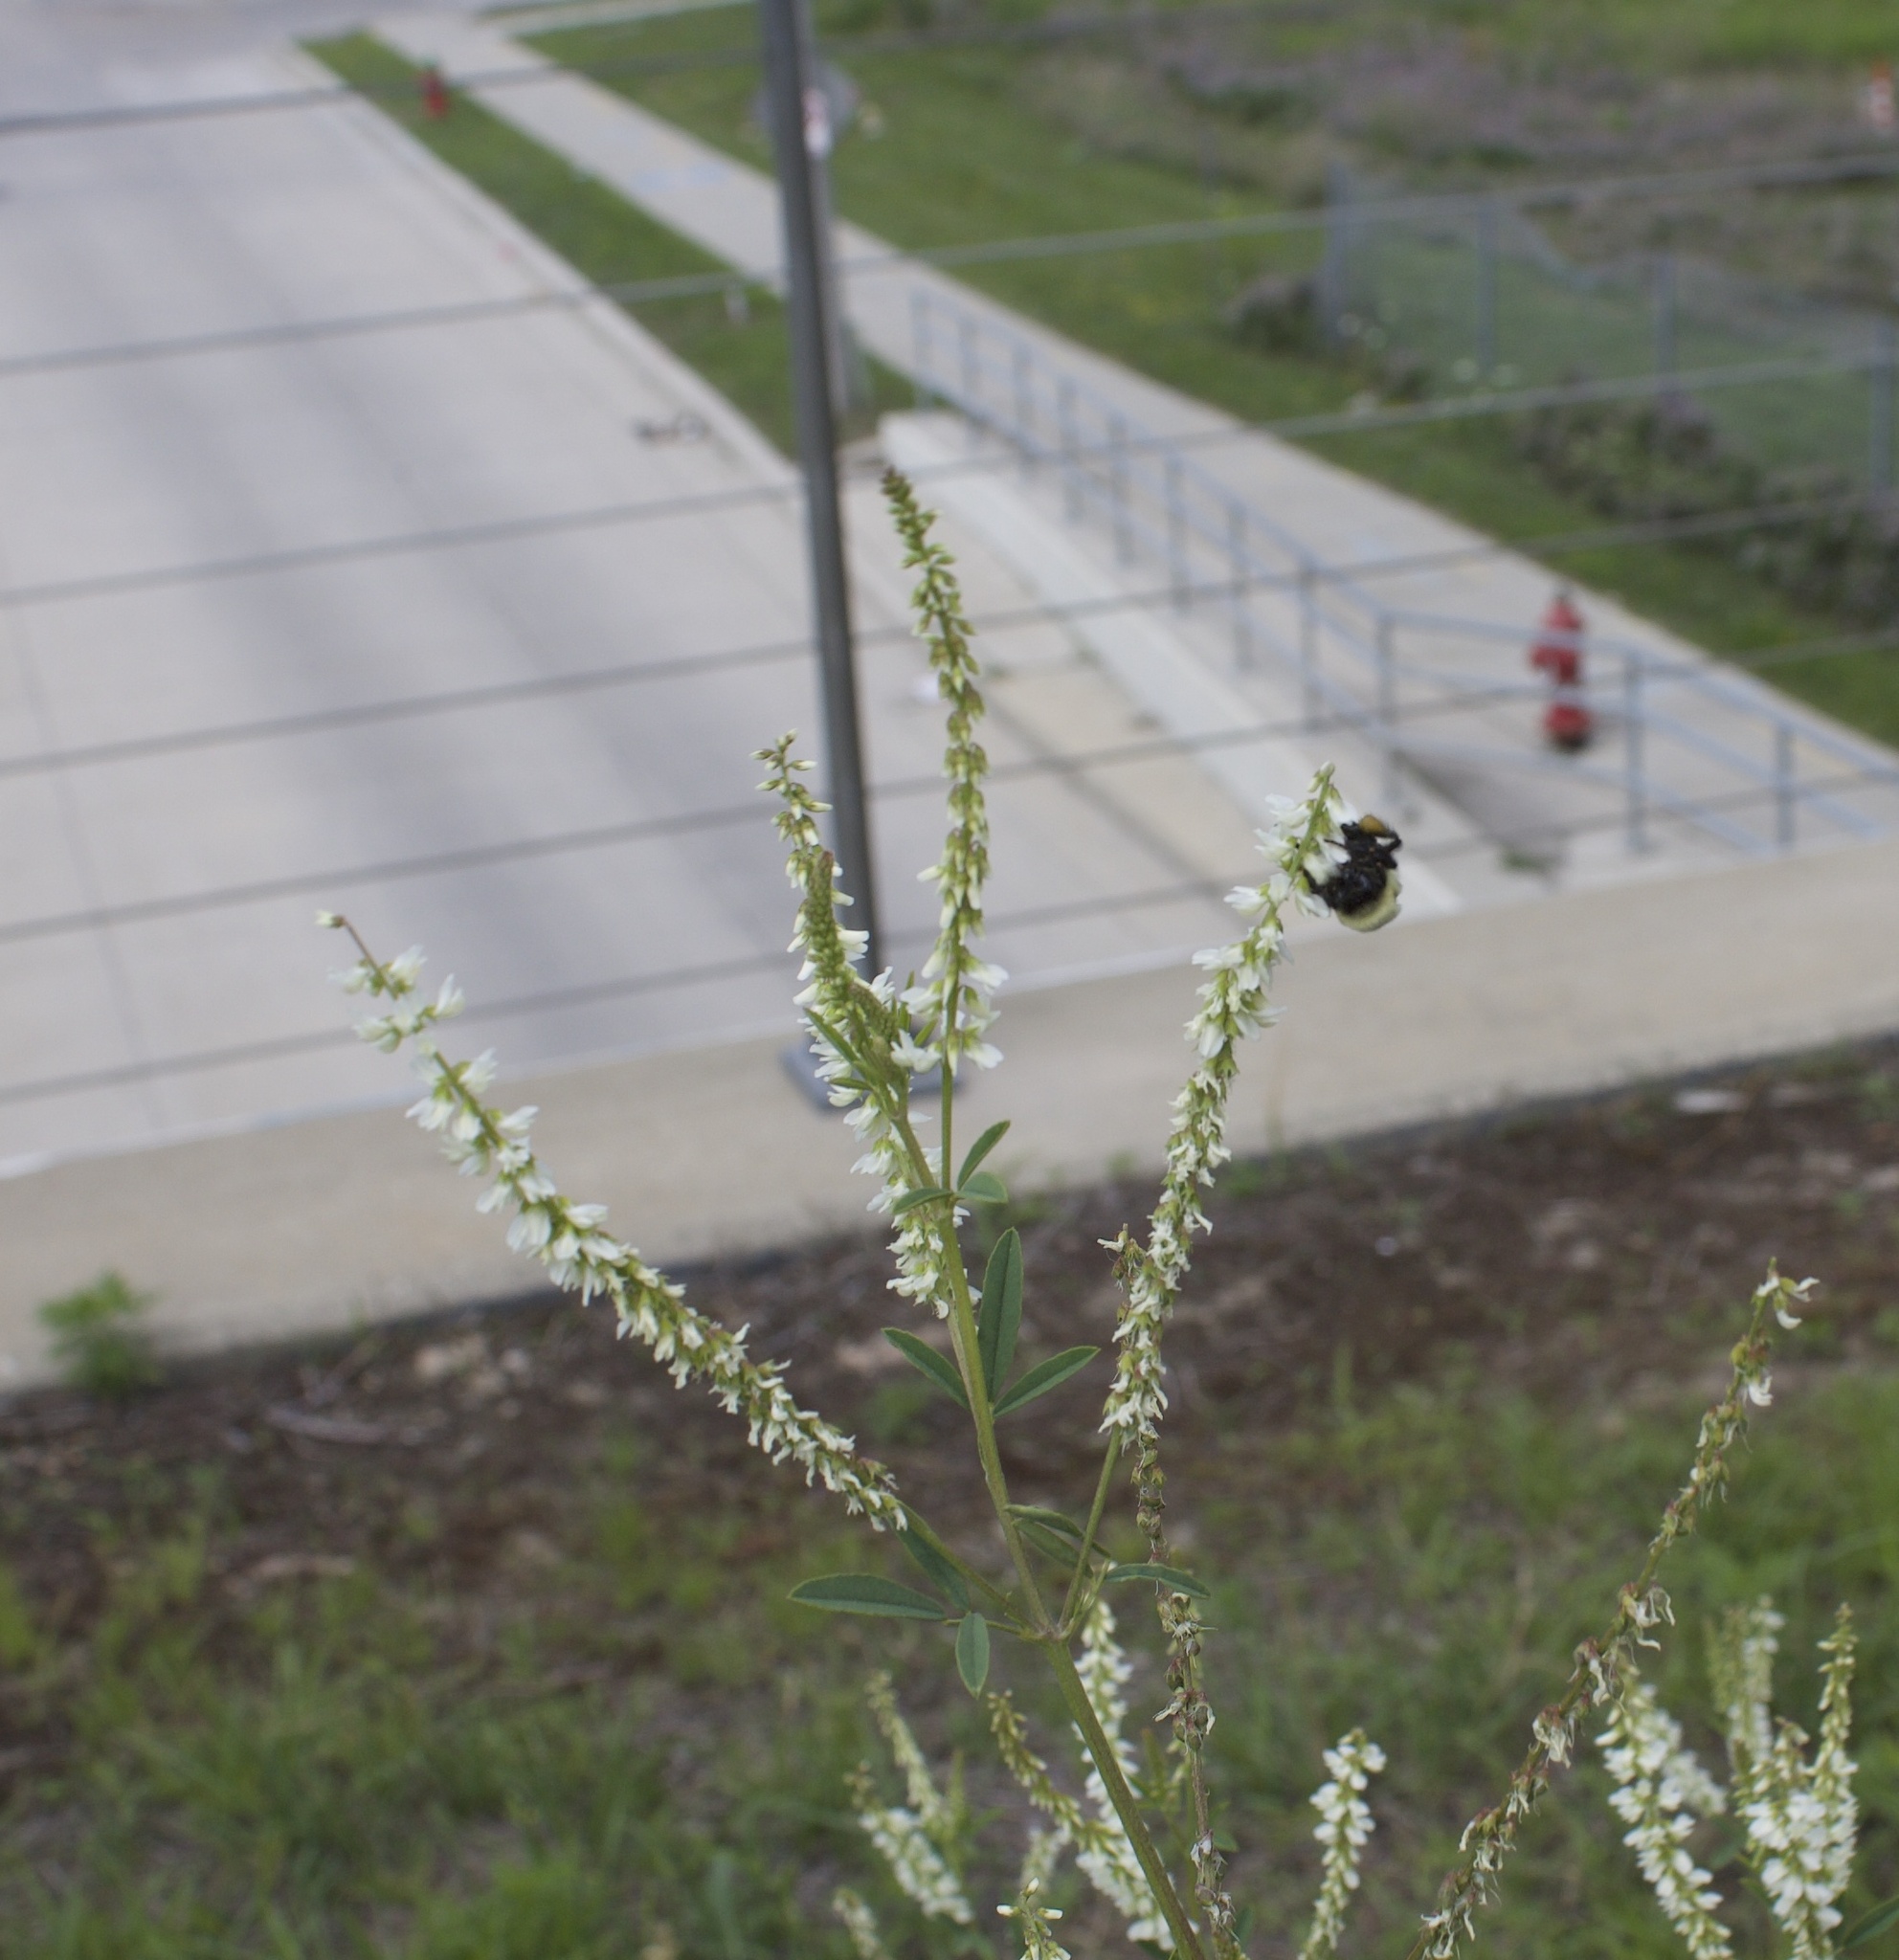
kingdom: Animalia
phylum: Arthropoda
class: Insecta
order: Hymenoptera
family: Apidae
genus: Bombus
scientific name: Bombus impatiens
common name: Common eastern bumble bee
